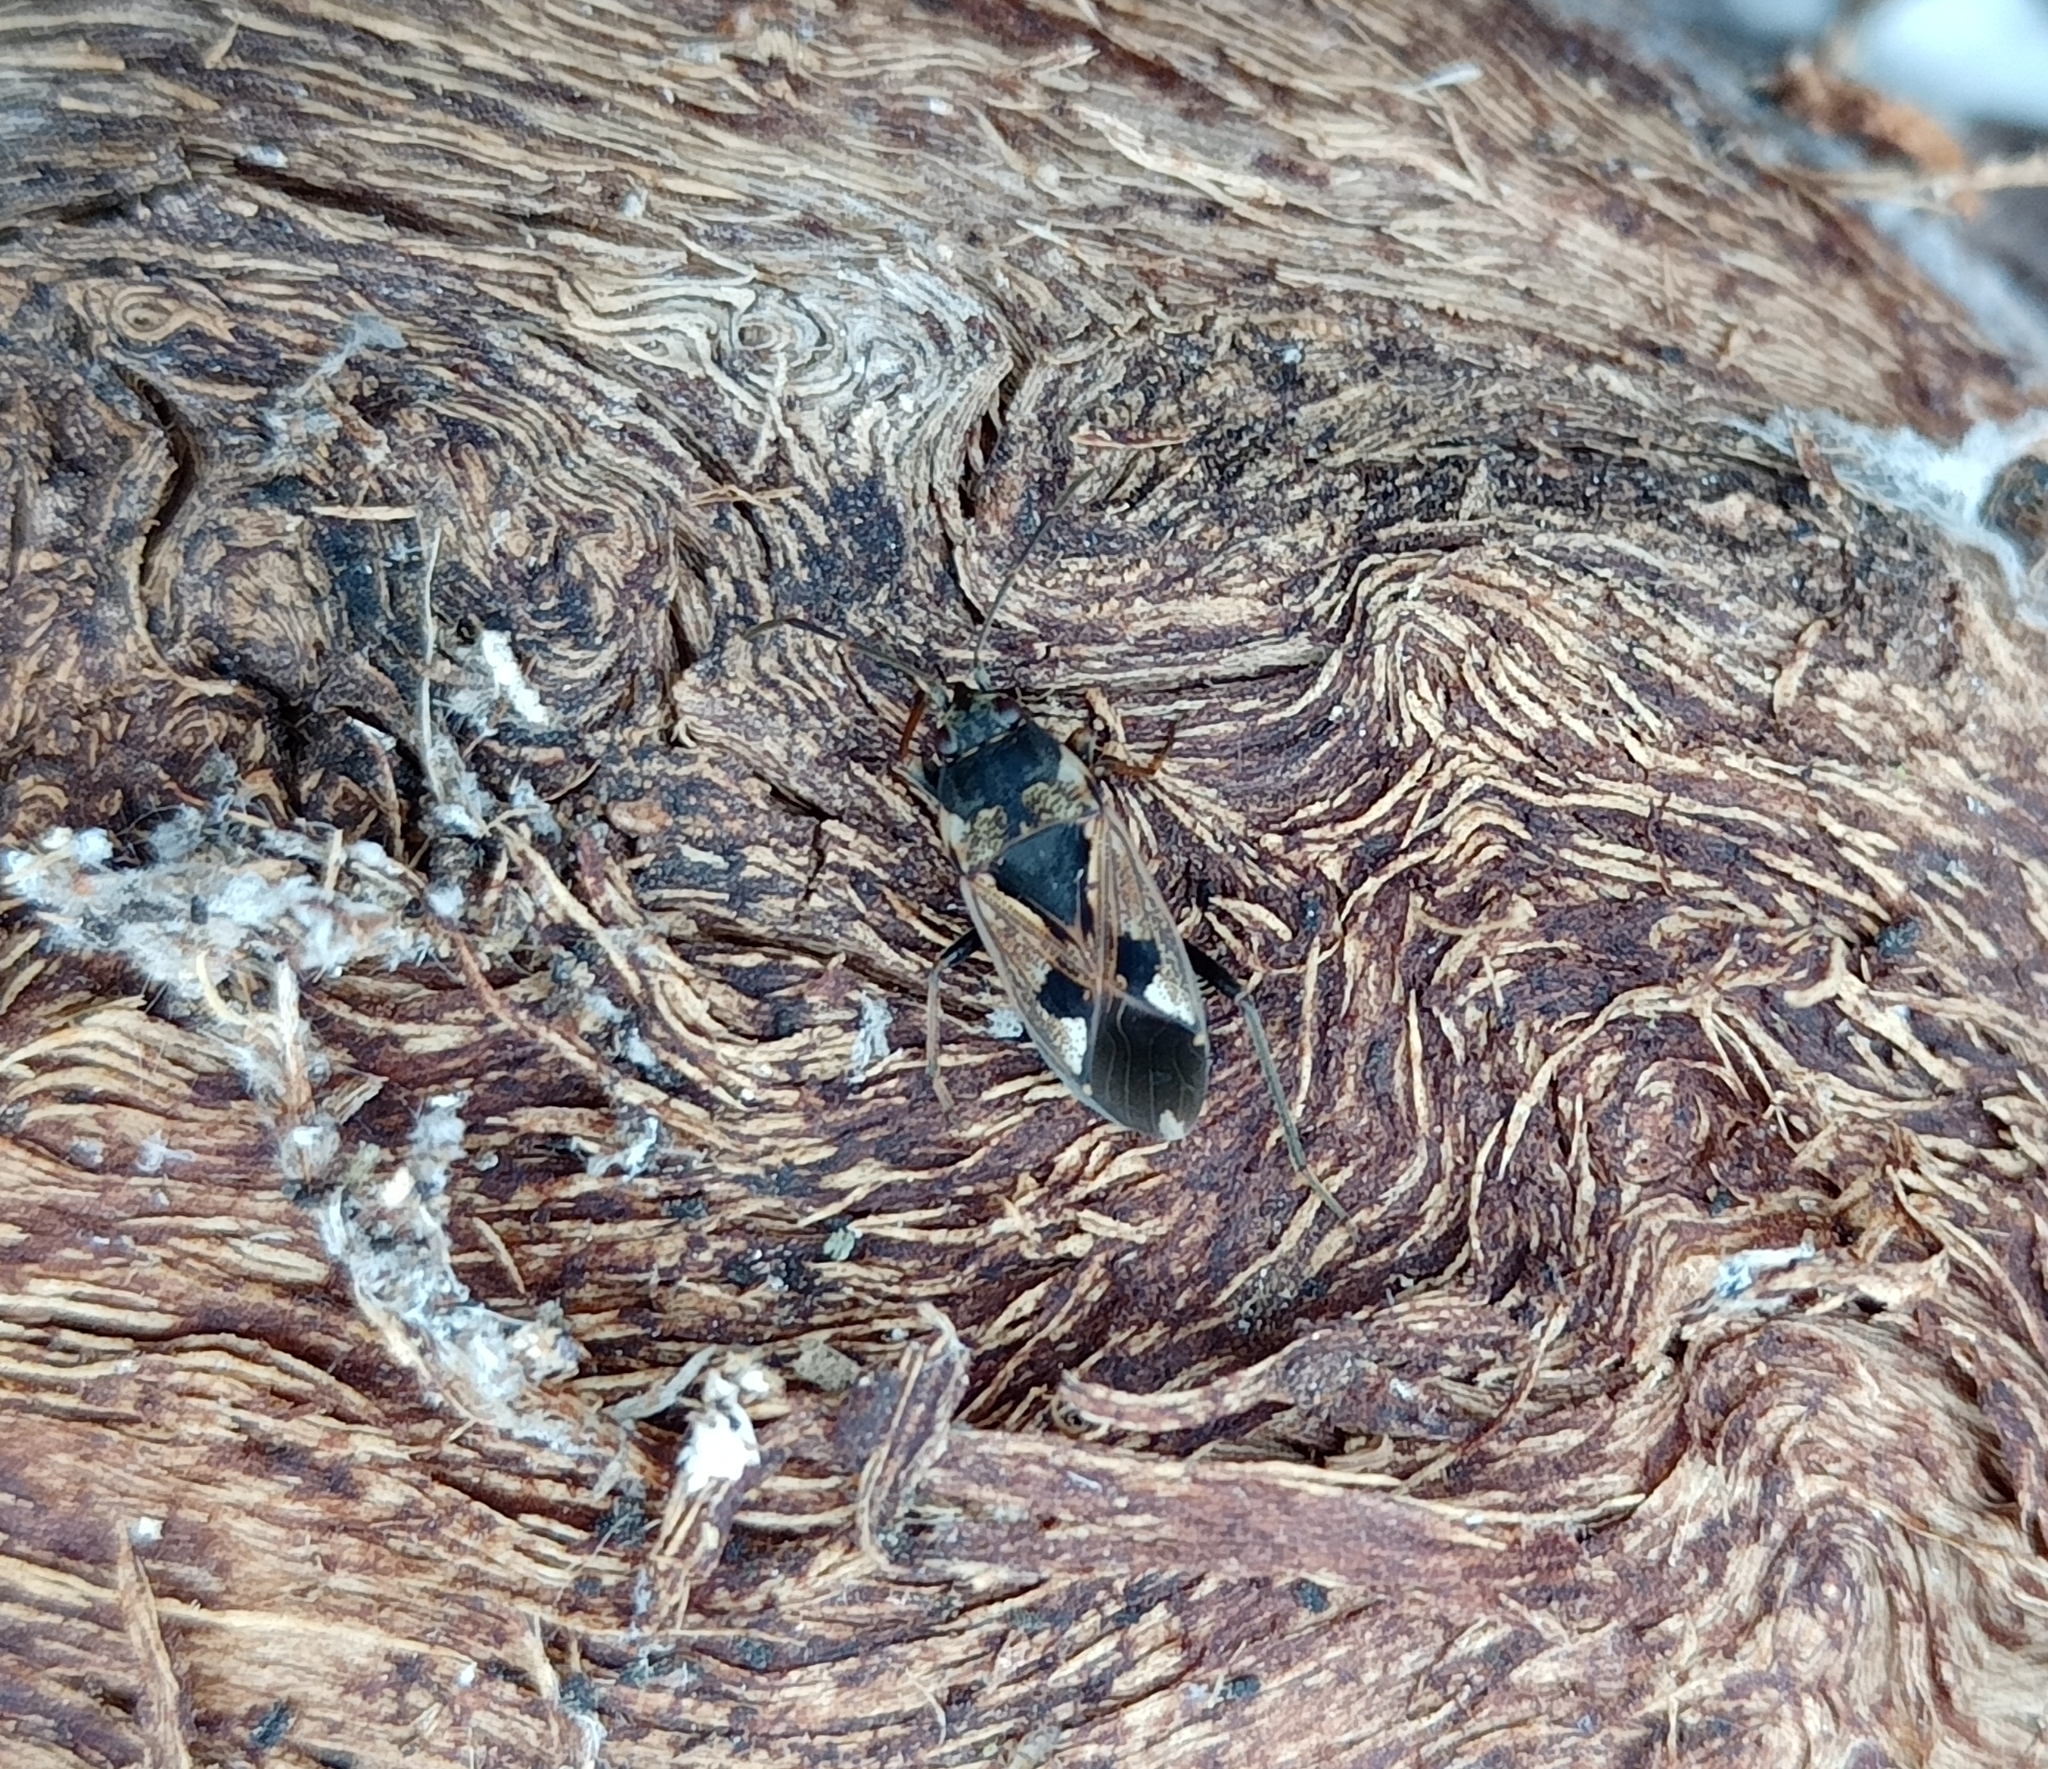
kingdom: Animalia
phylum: Arthropoda
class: Insecta
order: Hemiptera
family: Rhyparochromidae
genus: Rhyparochromus
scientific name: Rhyparochromus vulgaris
